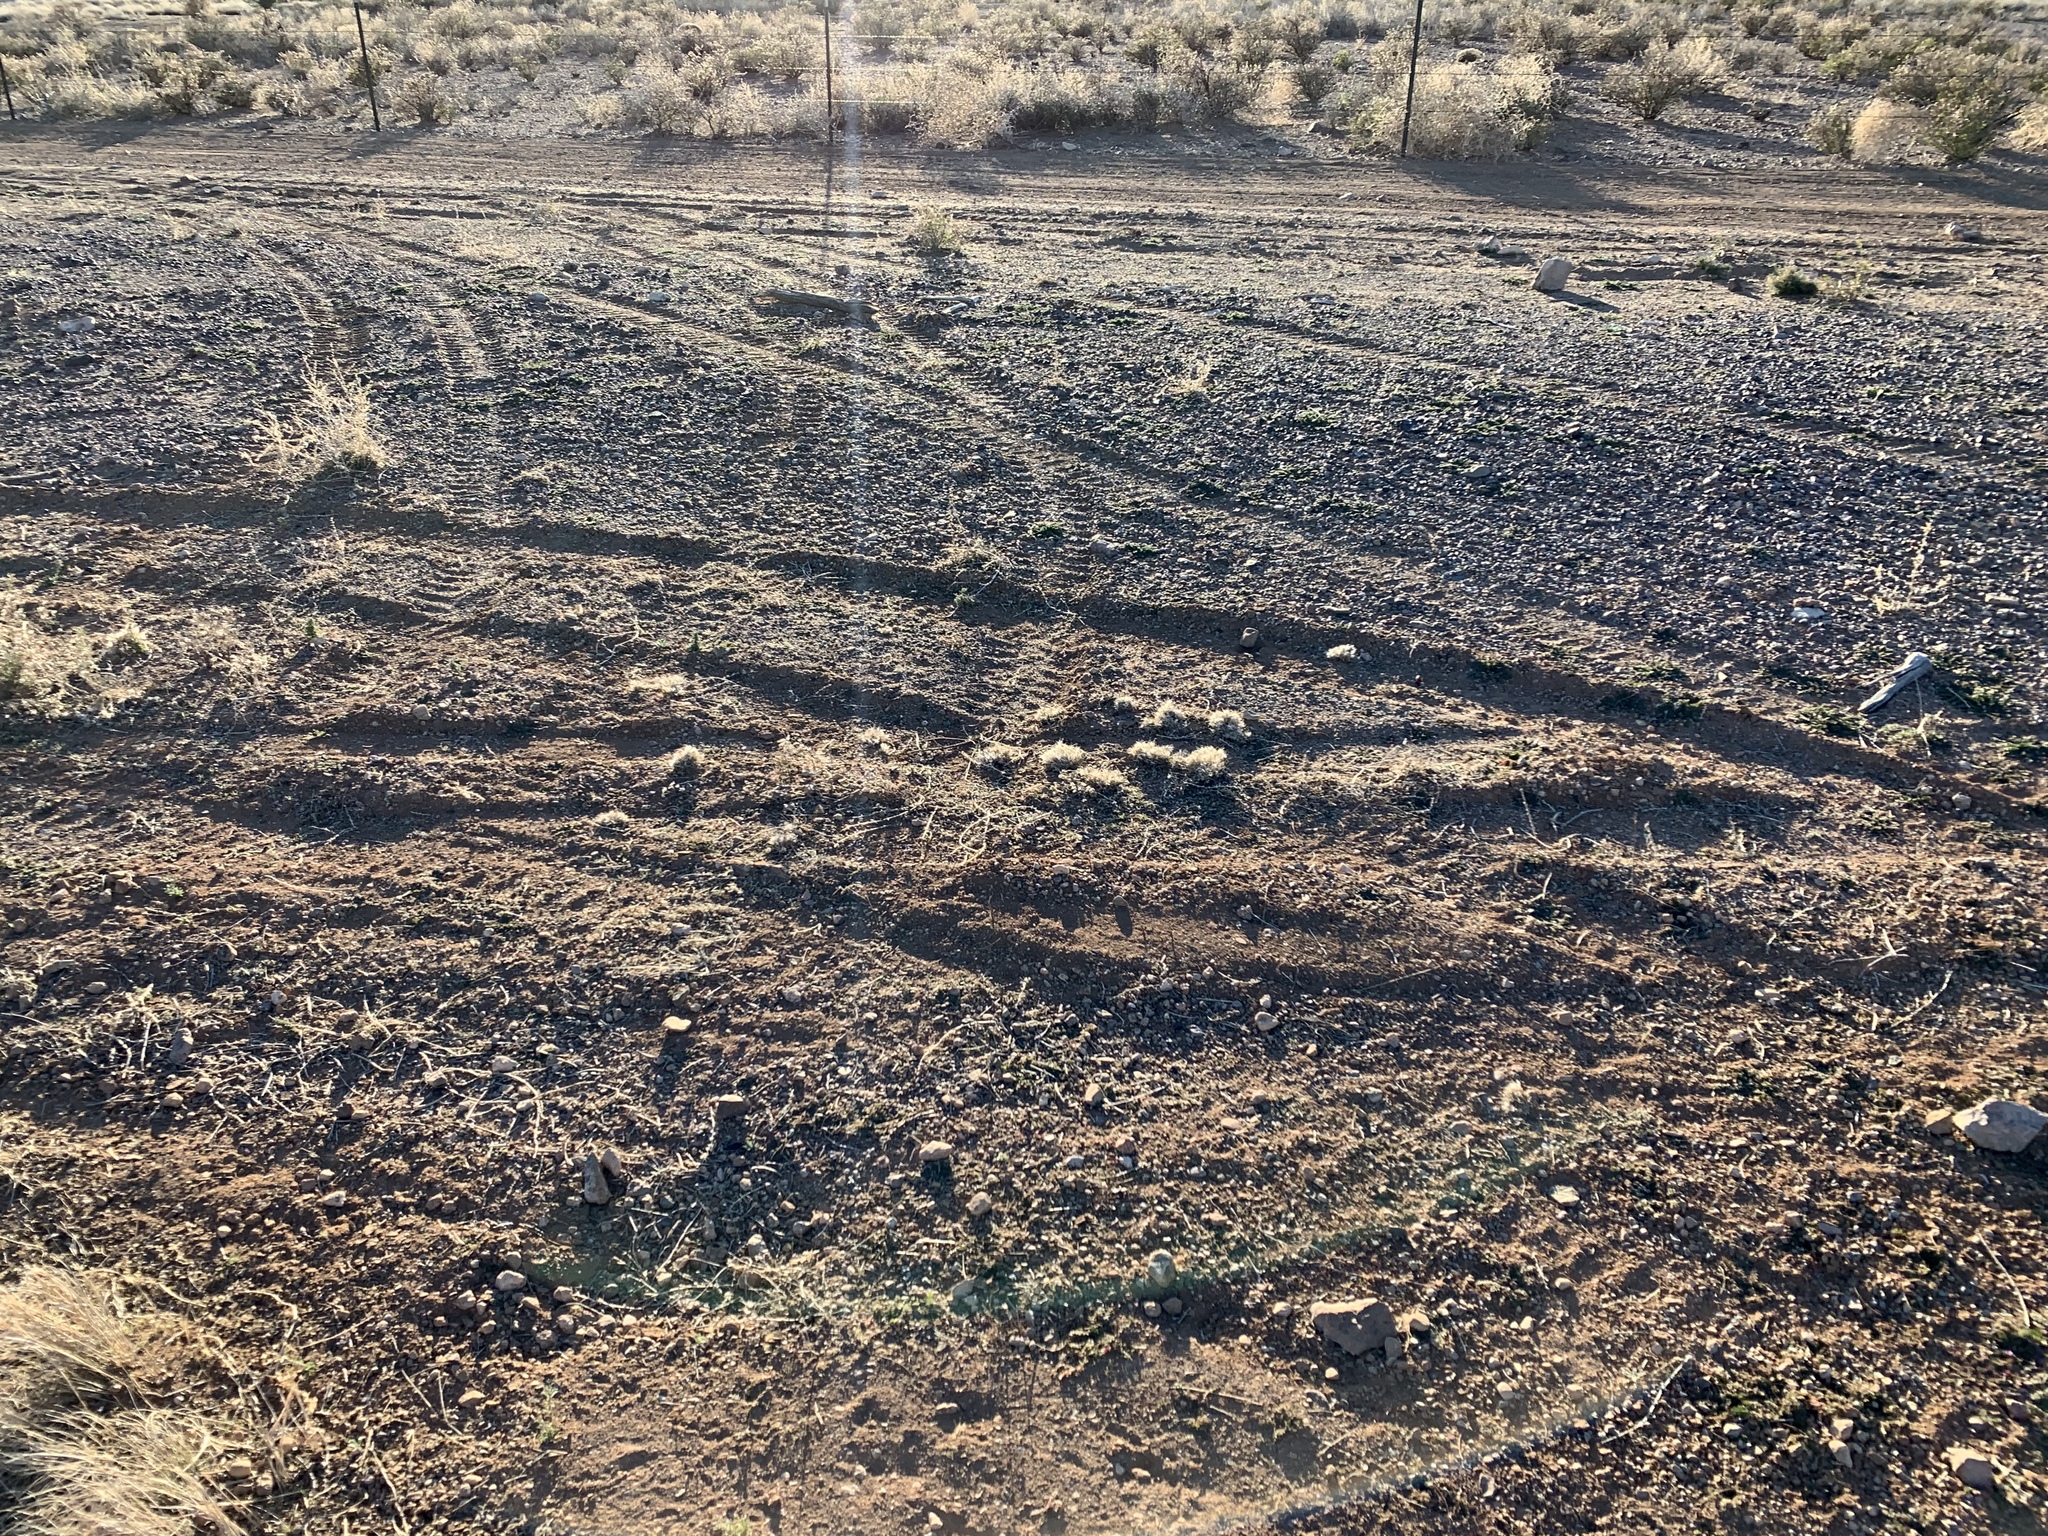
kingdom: Plantae
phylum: Tracheophyta
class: Liliopsida
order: Poales
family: Poaceae
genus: Dasyochloa
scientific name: Dasyochloa pulchella
